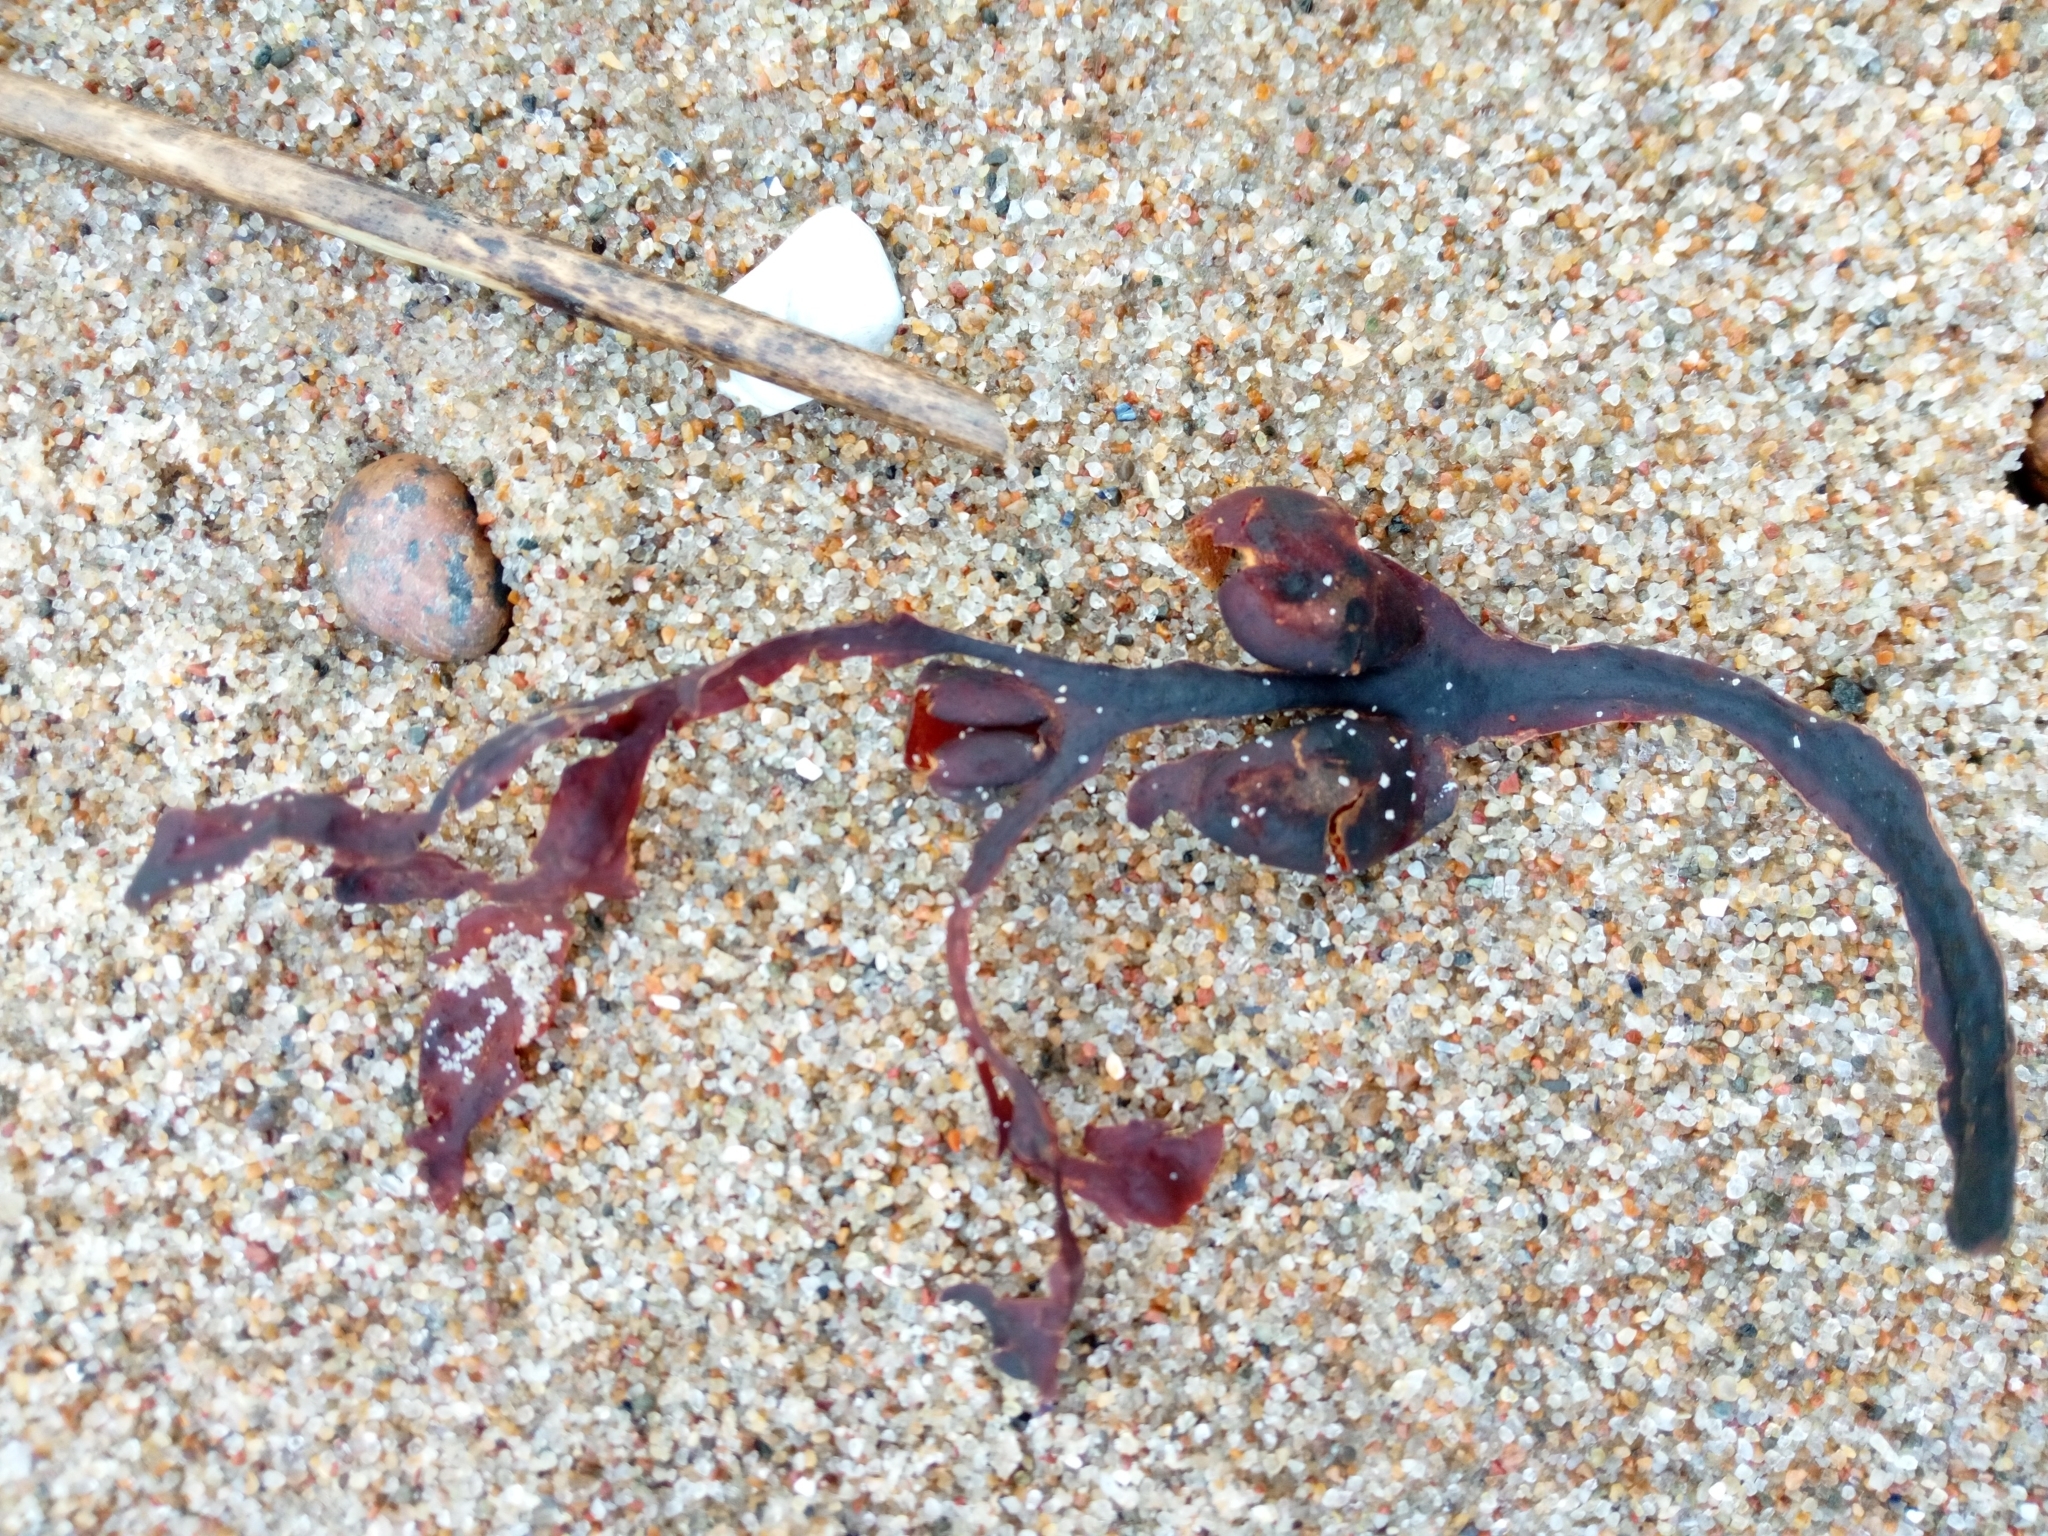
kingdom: Chromista
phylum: Ochrophyta
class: Phaeophyceae
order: Fucales
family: Fucaceae
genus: Fucus
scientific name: Fucus vesiculosus
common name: Bladder wrack
